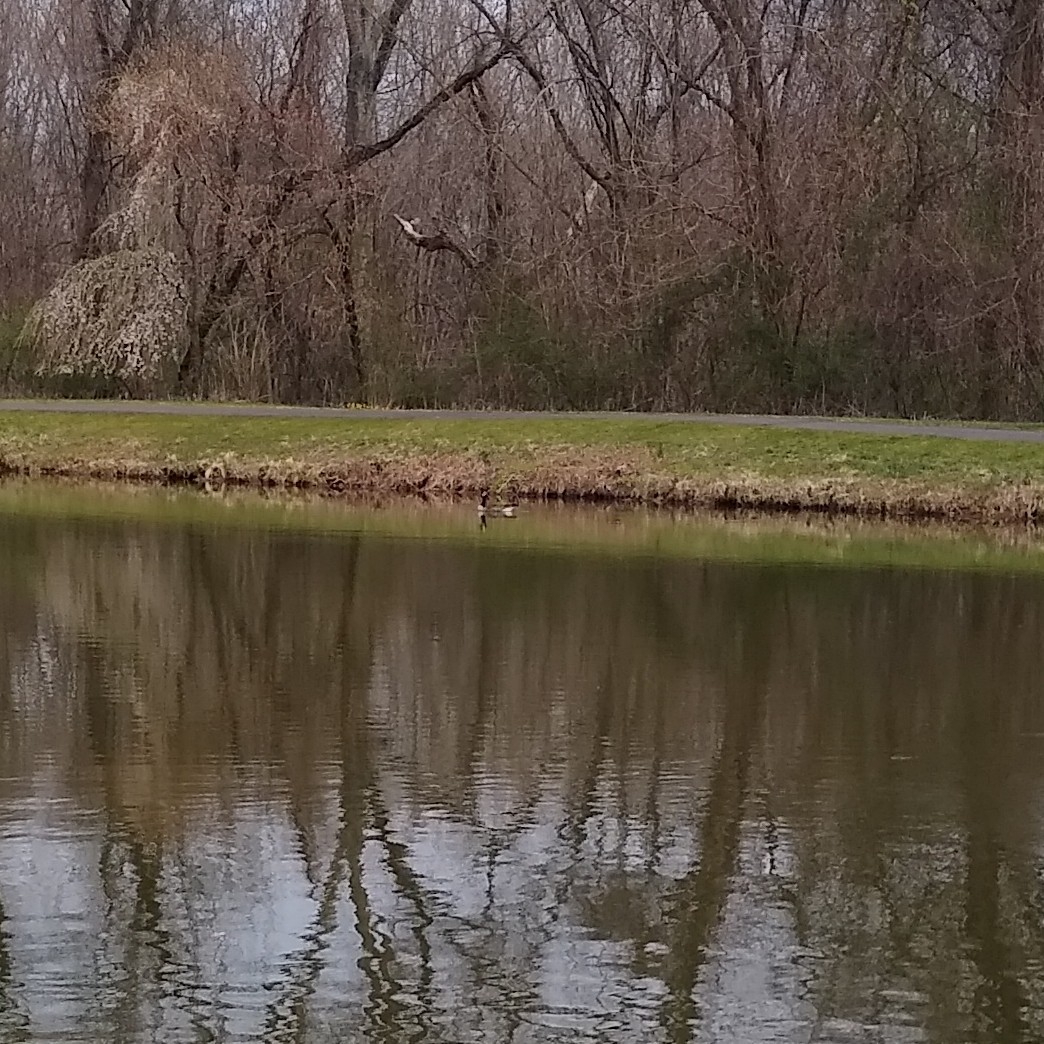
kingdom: Animalia
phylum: Chordata
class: Aves
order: Anseriformes
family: Anatidae
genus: Branta
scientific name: Branta canadensis
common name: Canada goose
